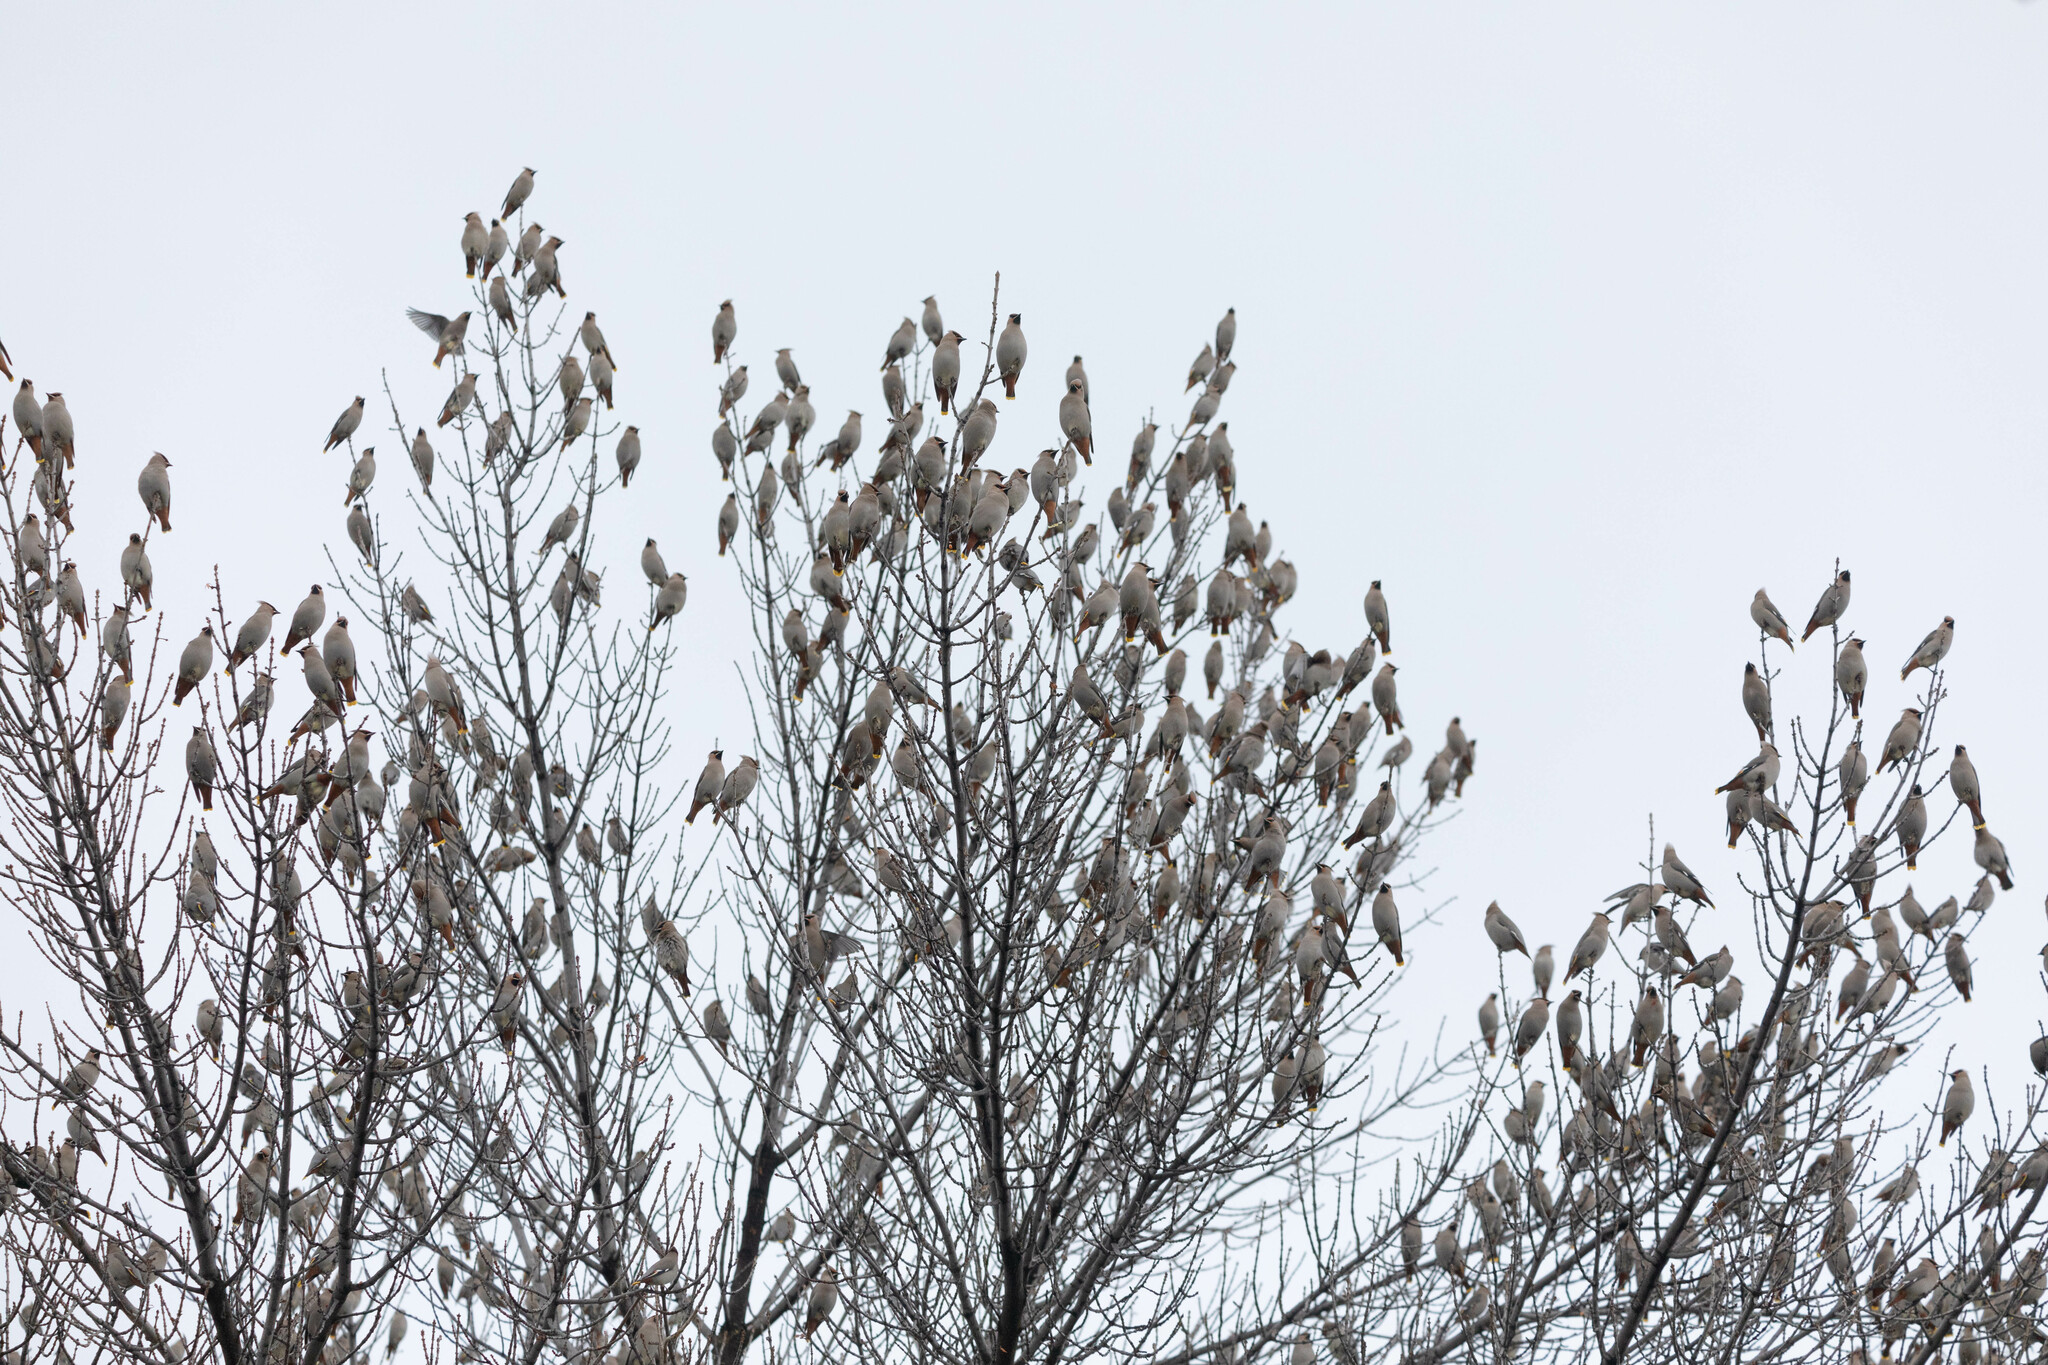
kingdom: Animalia
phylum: Chordata
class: Aves
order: Passeriformes
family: Bombycillidae
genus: Bombycilla
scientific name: Bombycilla garrulus
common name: Bohemian waxwing
